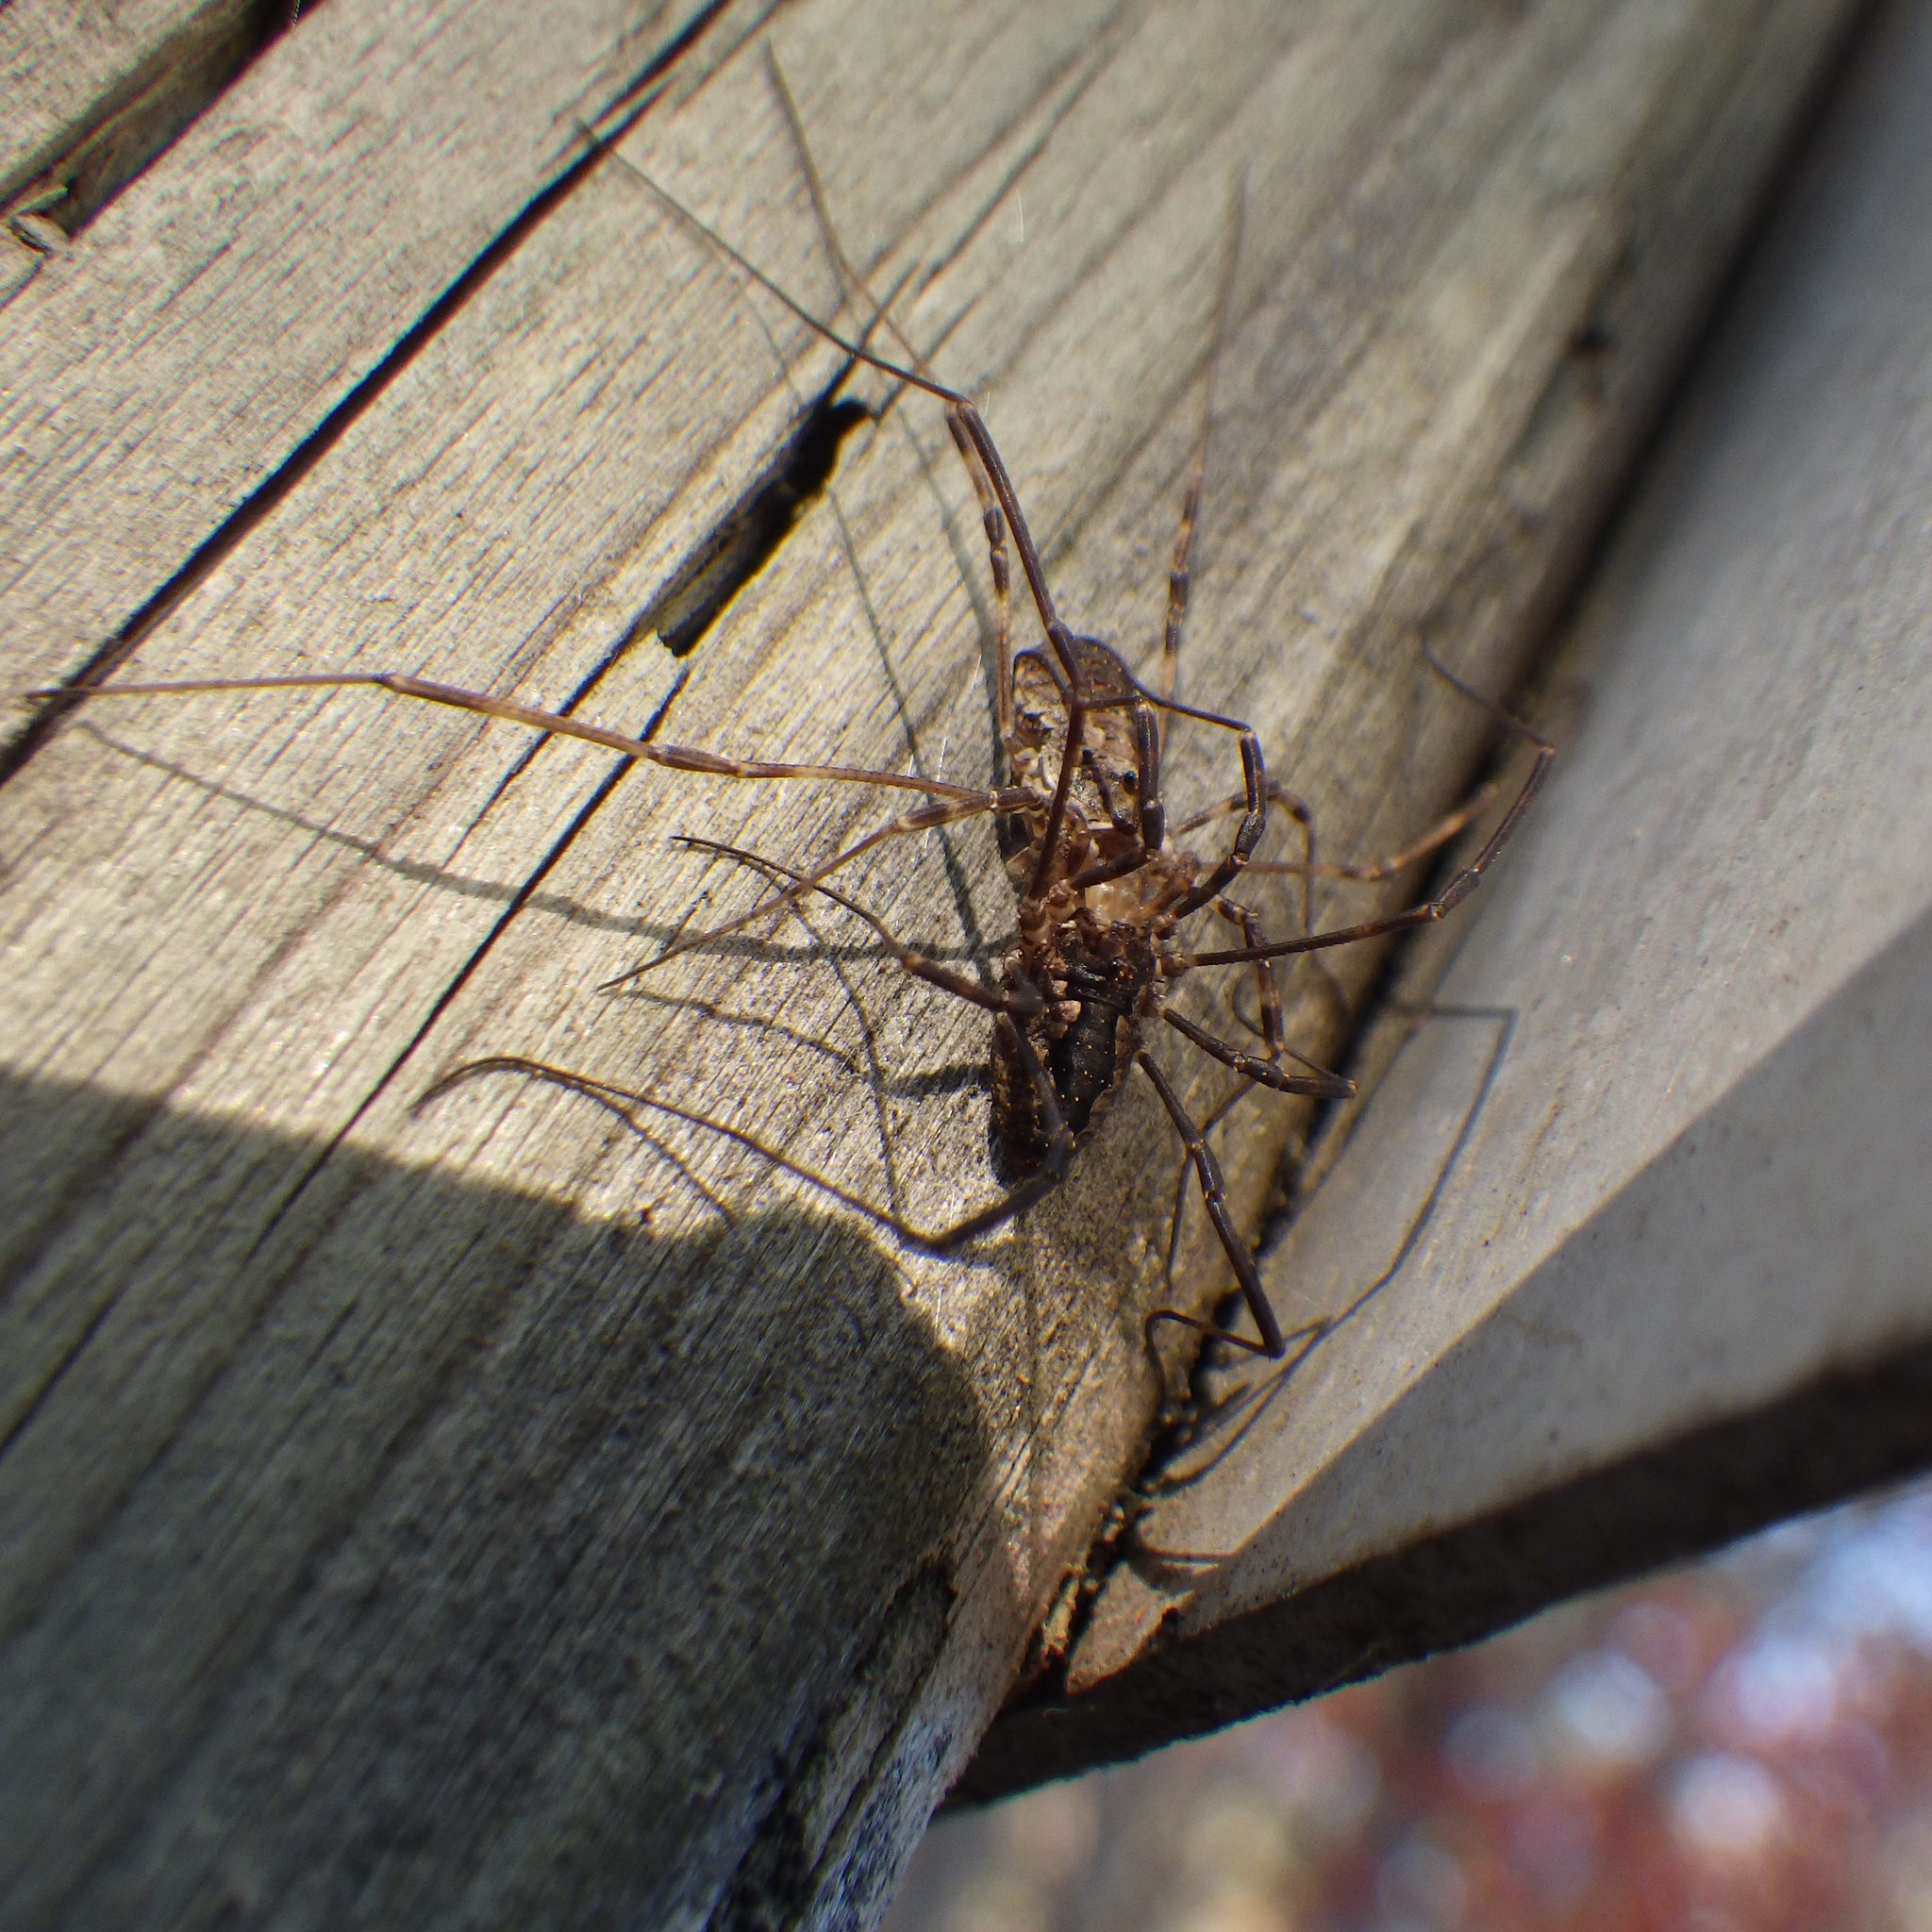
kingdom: Animalia
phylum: Arthropoda
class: Arachnida
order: Opiliones
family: Phalangiidae
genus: Odiellus
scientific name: Odiellus pictus
